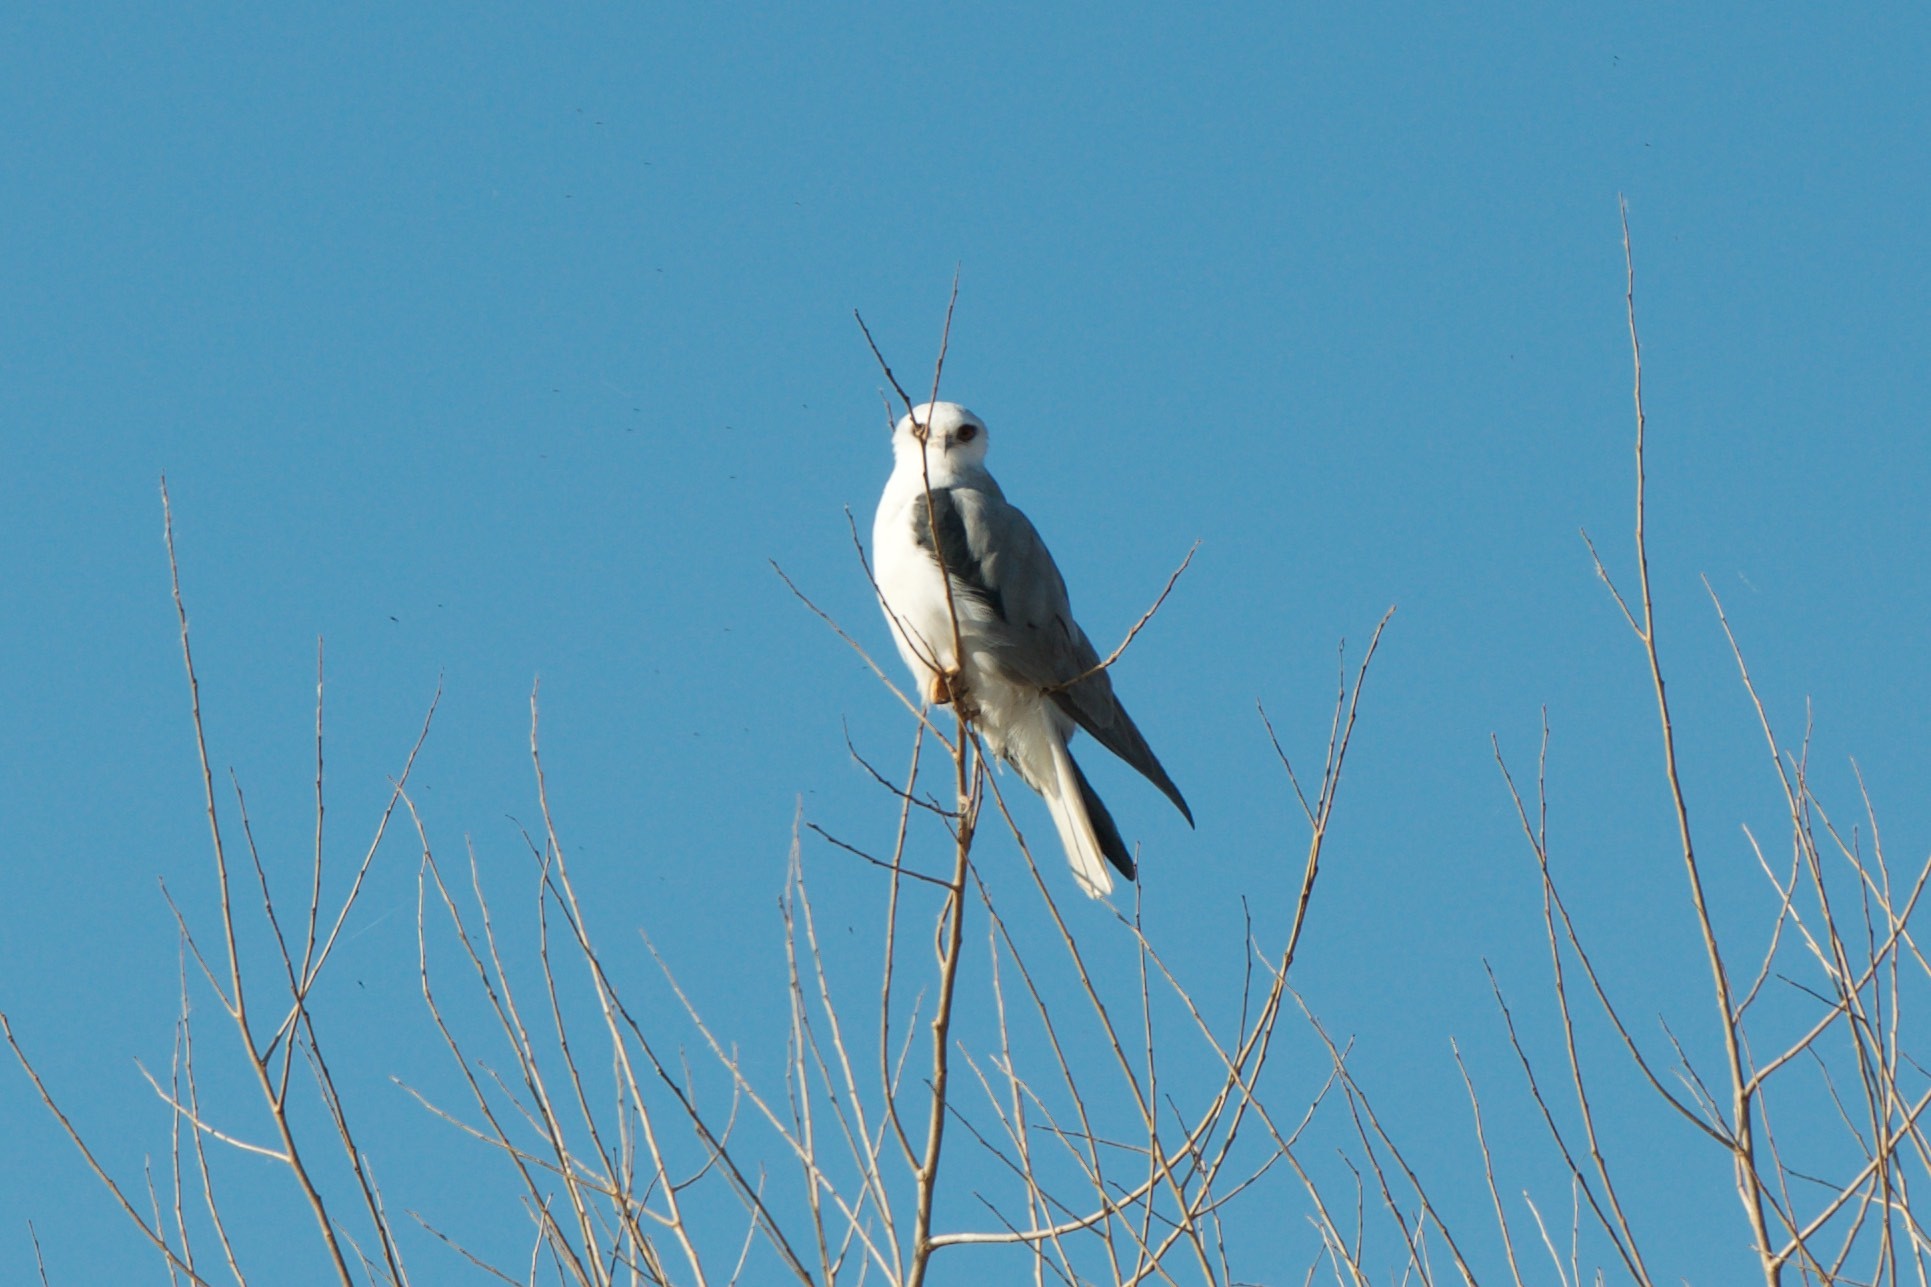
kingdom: Animalia
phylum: Chordata
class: Aves
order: Accipitriformes
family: Accipitridae
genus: Elanus
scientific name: Elanus leucurus
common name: White-tailed kite
